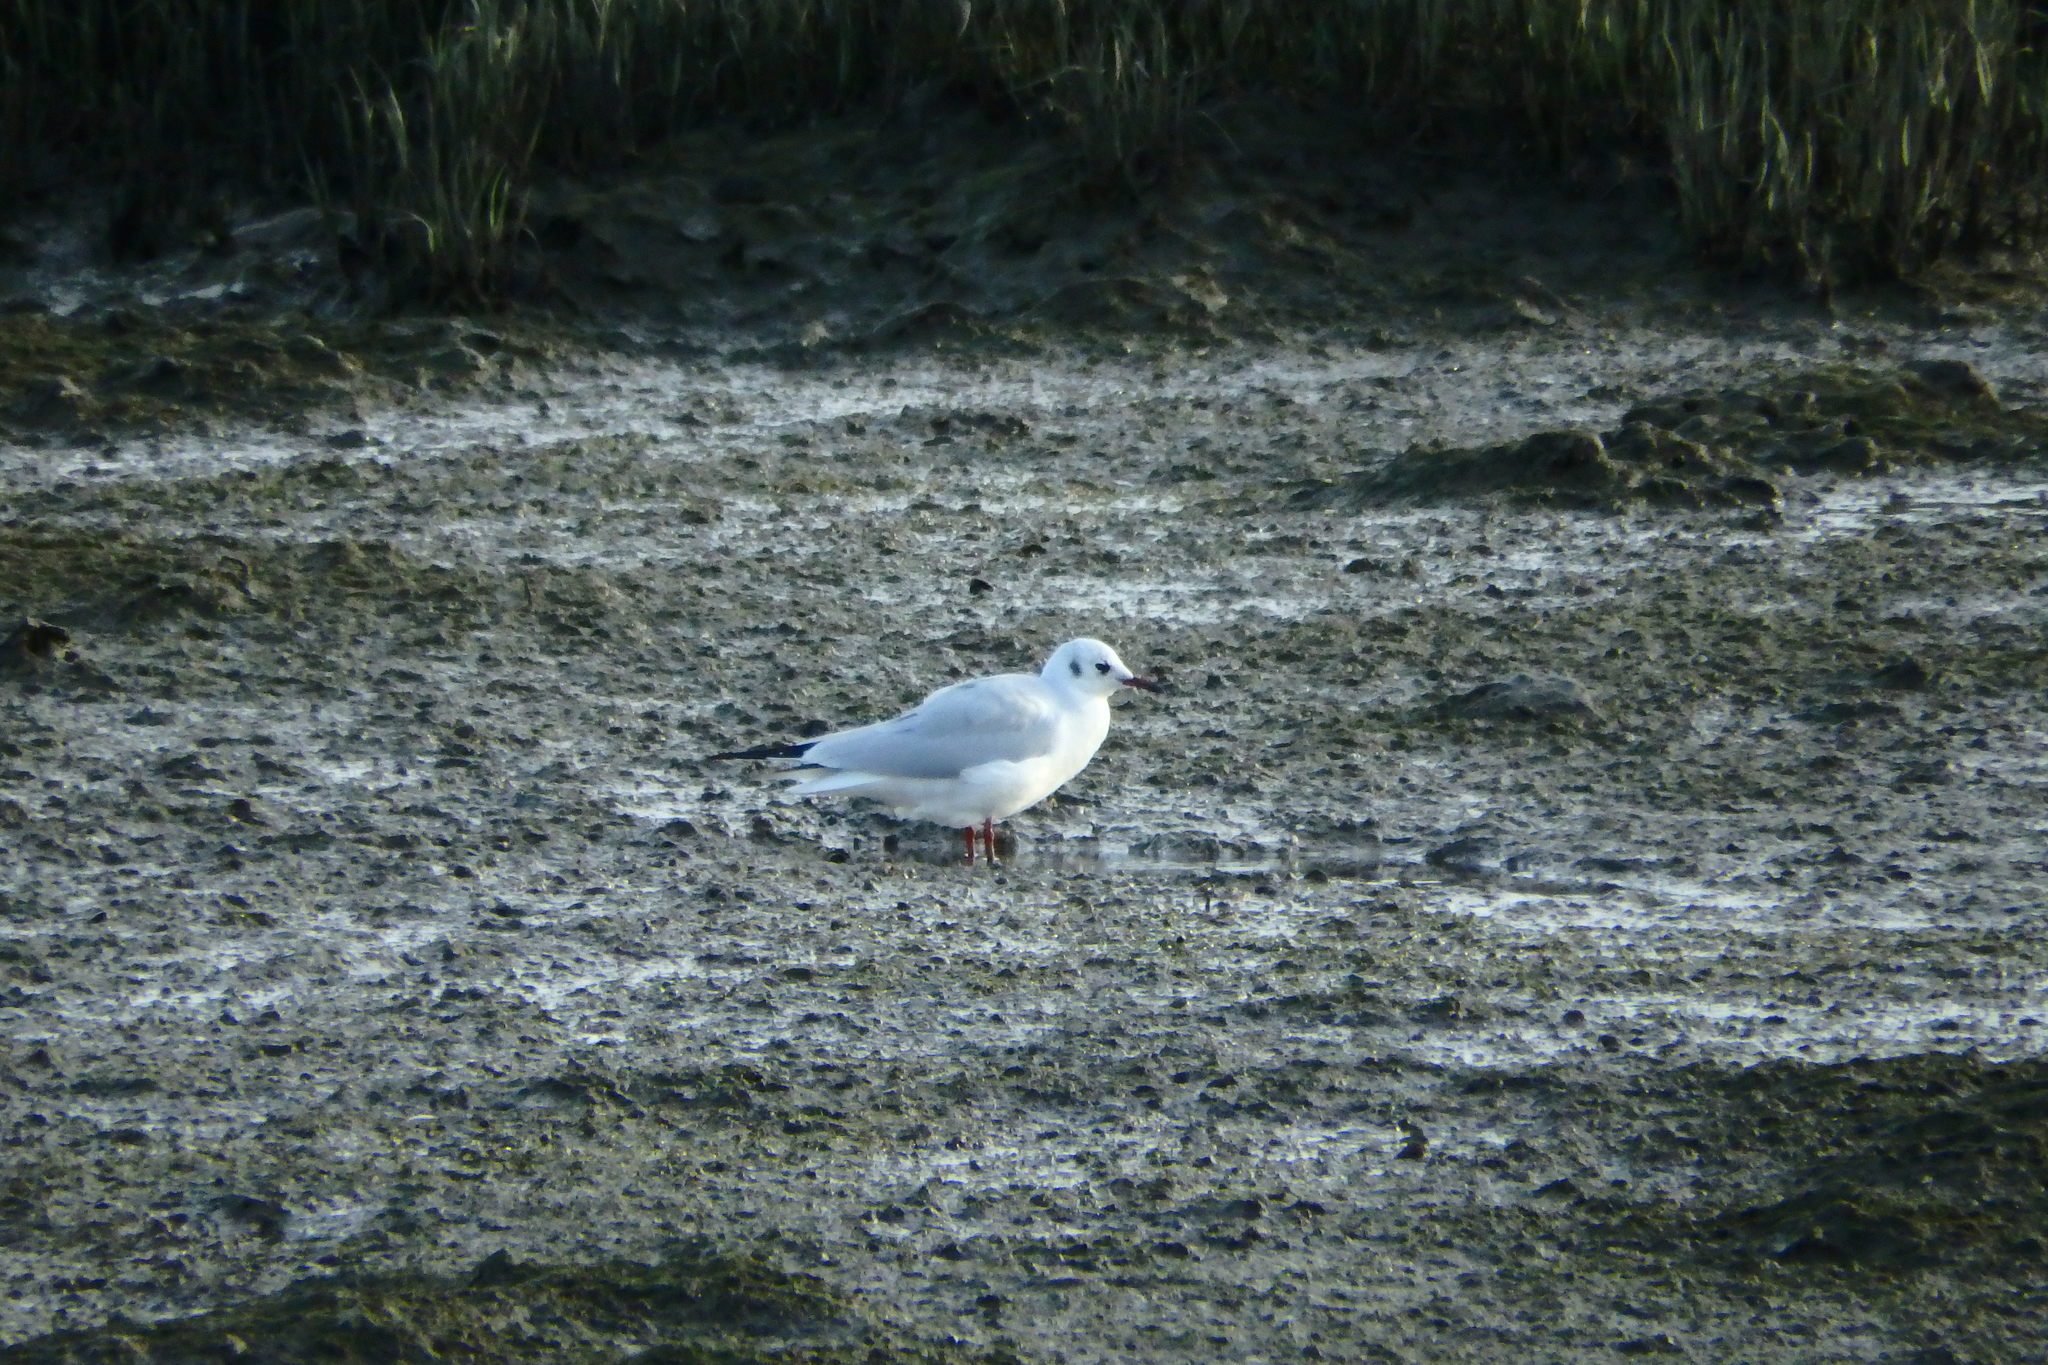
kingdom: Animalia
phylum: Chordata
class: Aves
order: Charadriiformes
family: Laridae
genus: Chroicocephalus
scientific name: Chroicocephalus ridibundus
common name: Black-headed gull
